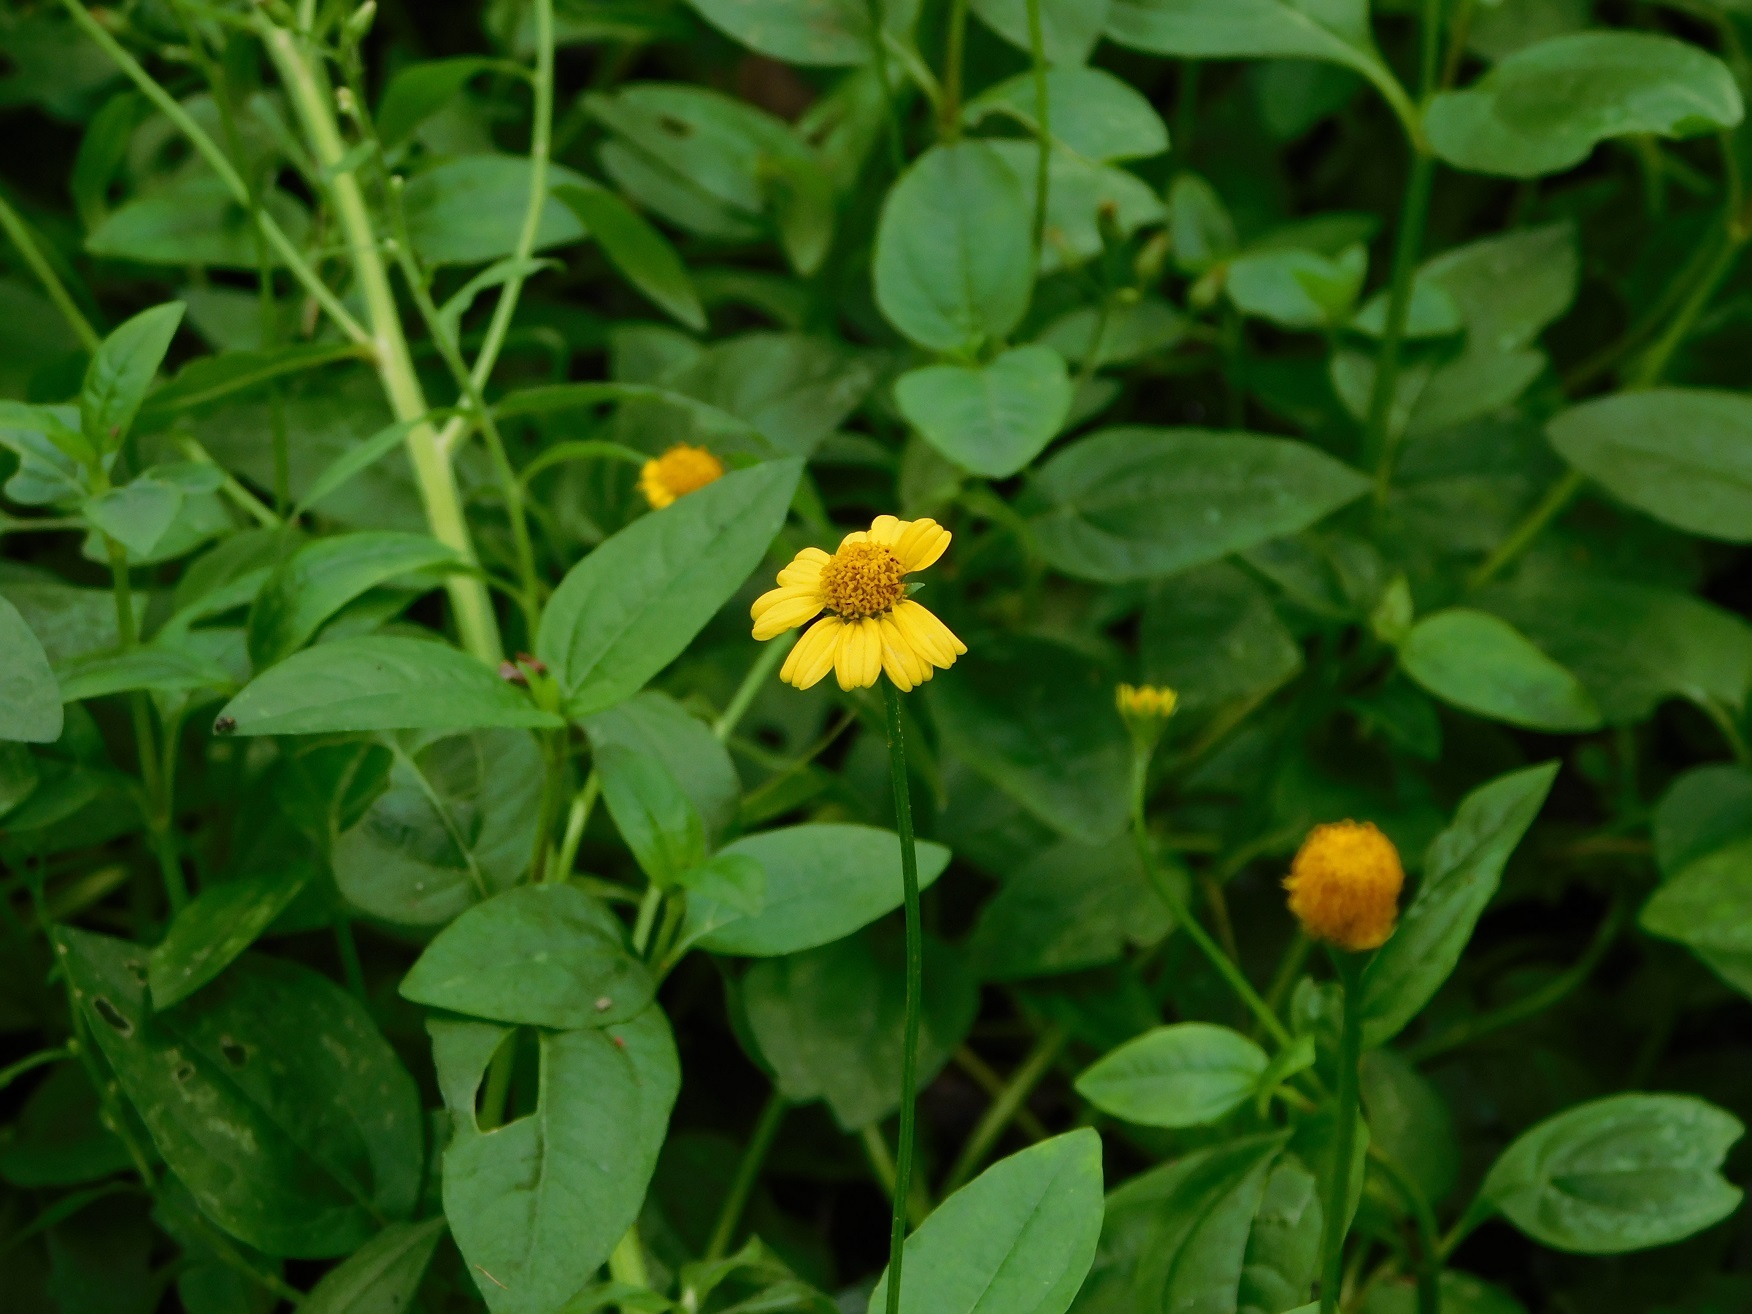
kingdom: Plantae
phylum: Tracheophyta
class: Magnoliopsida
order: Asterales
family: Asteraceae
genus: Acmella
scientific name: Acmella repens
